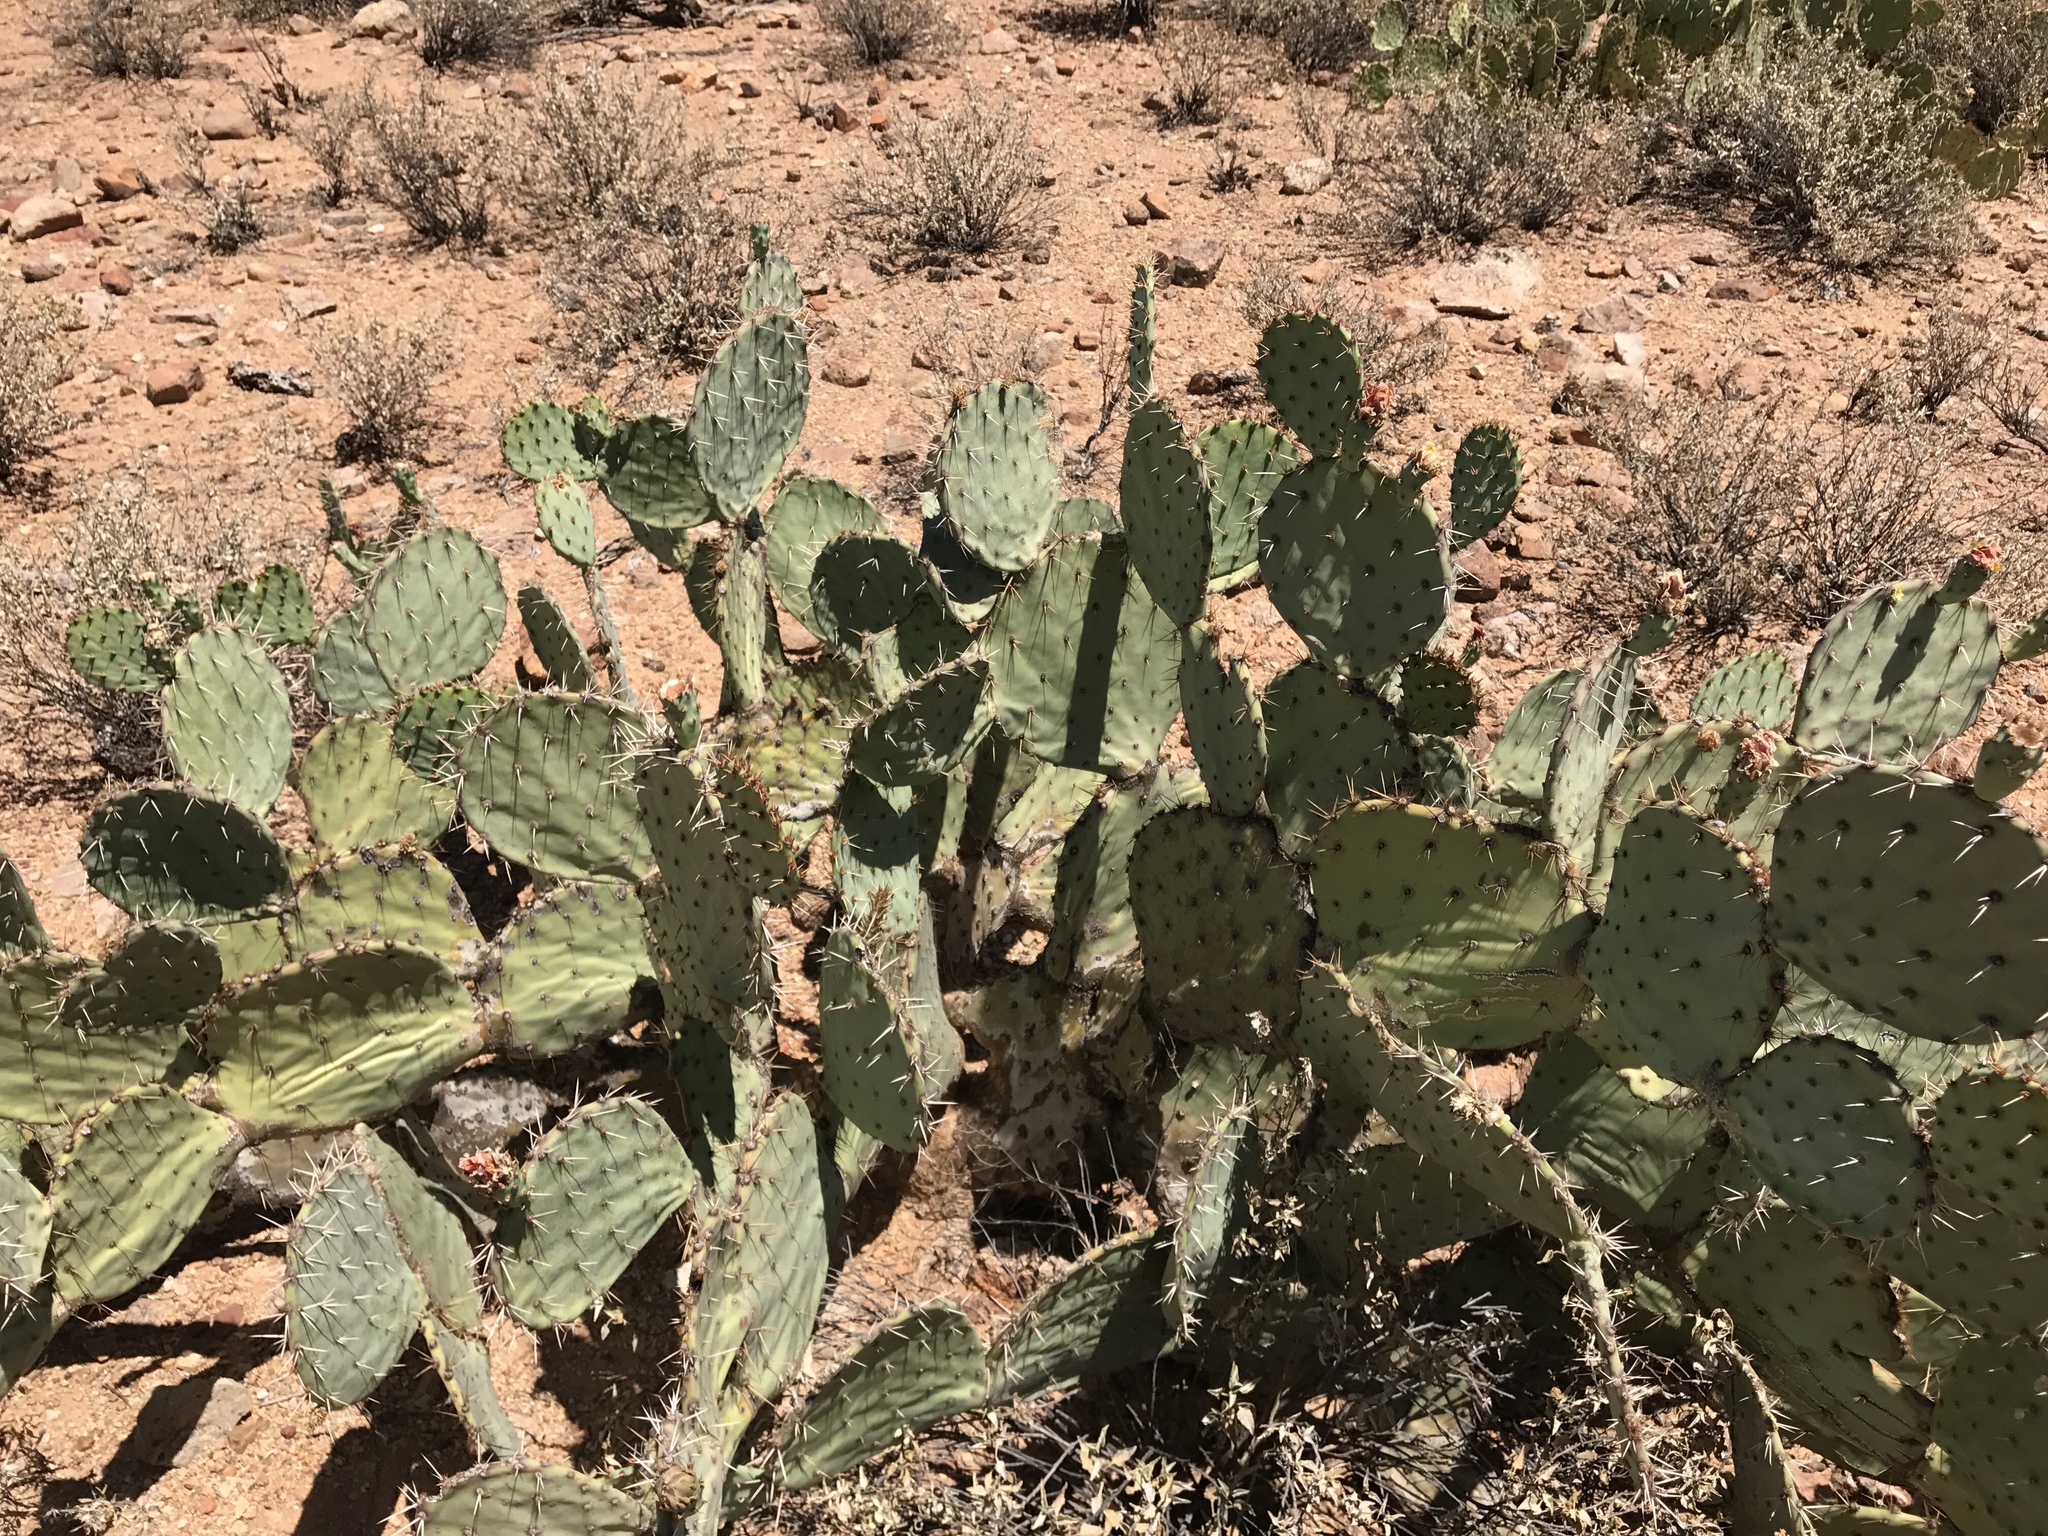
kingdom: Plantae
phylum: Tracheophyta
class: Magnoliopsida
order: Caryophyllales
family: Cactaceae
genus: Opuntia
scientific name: Opuntia engelmannii
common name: Cactus-apple
